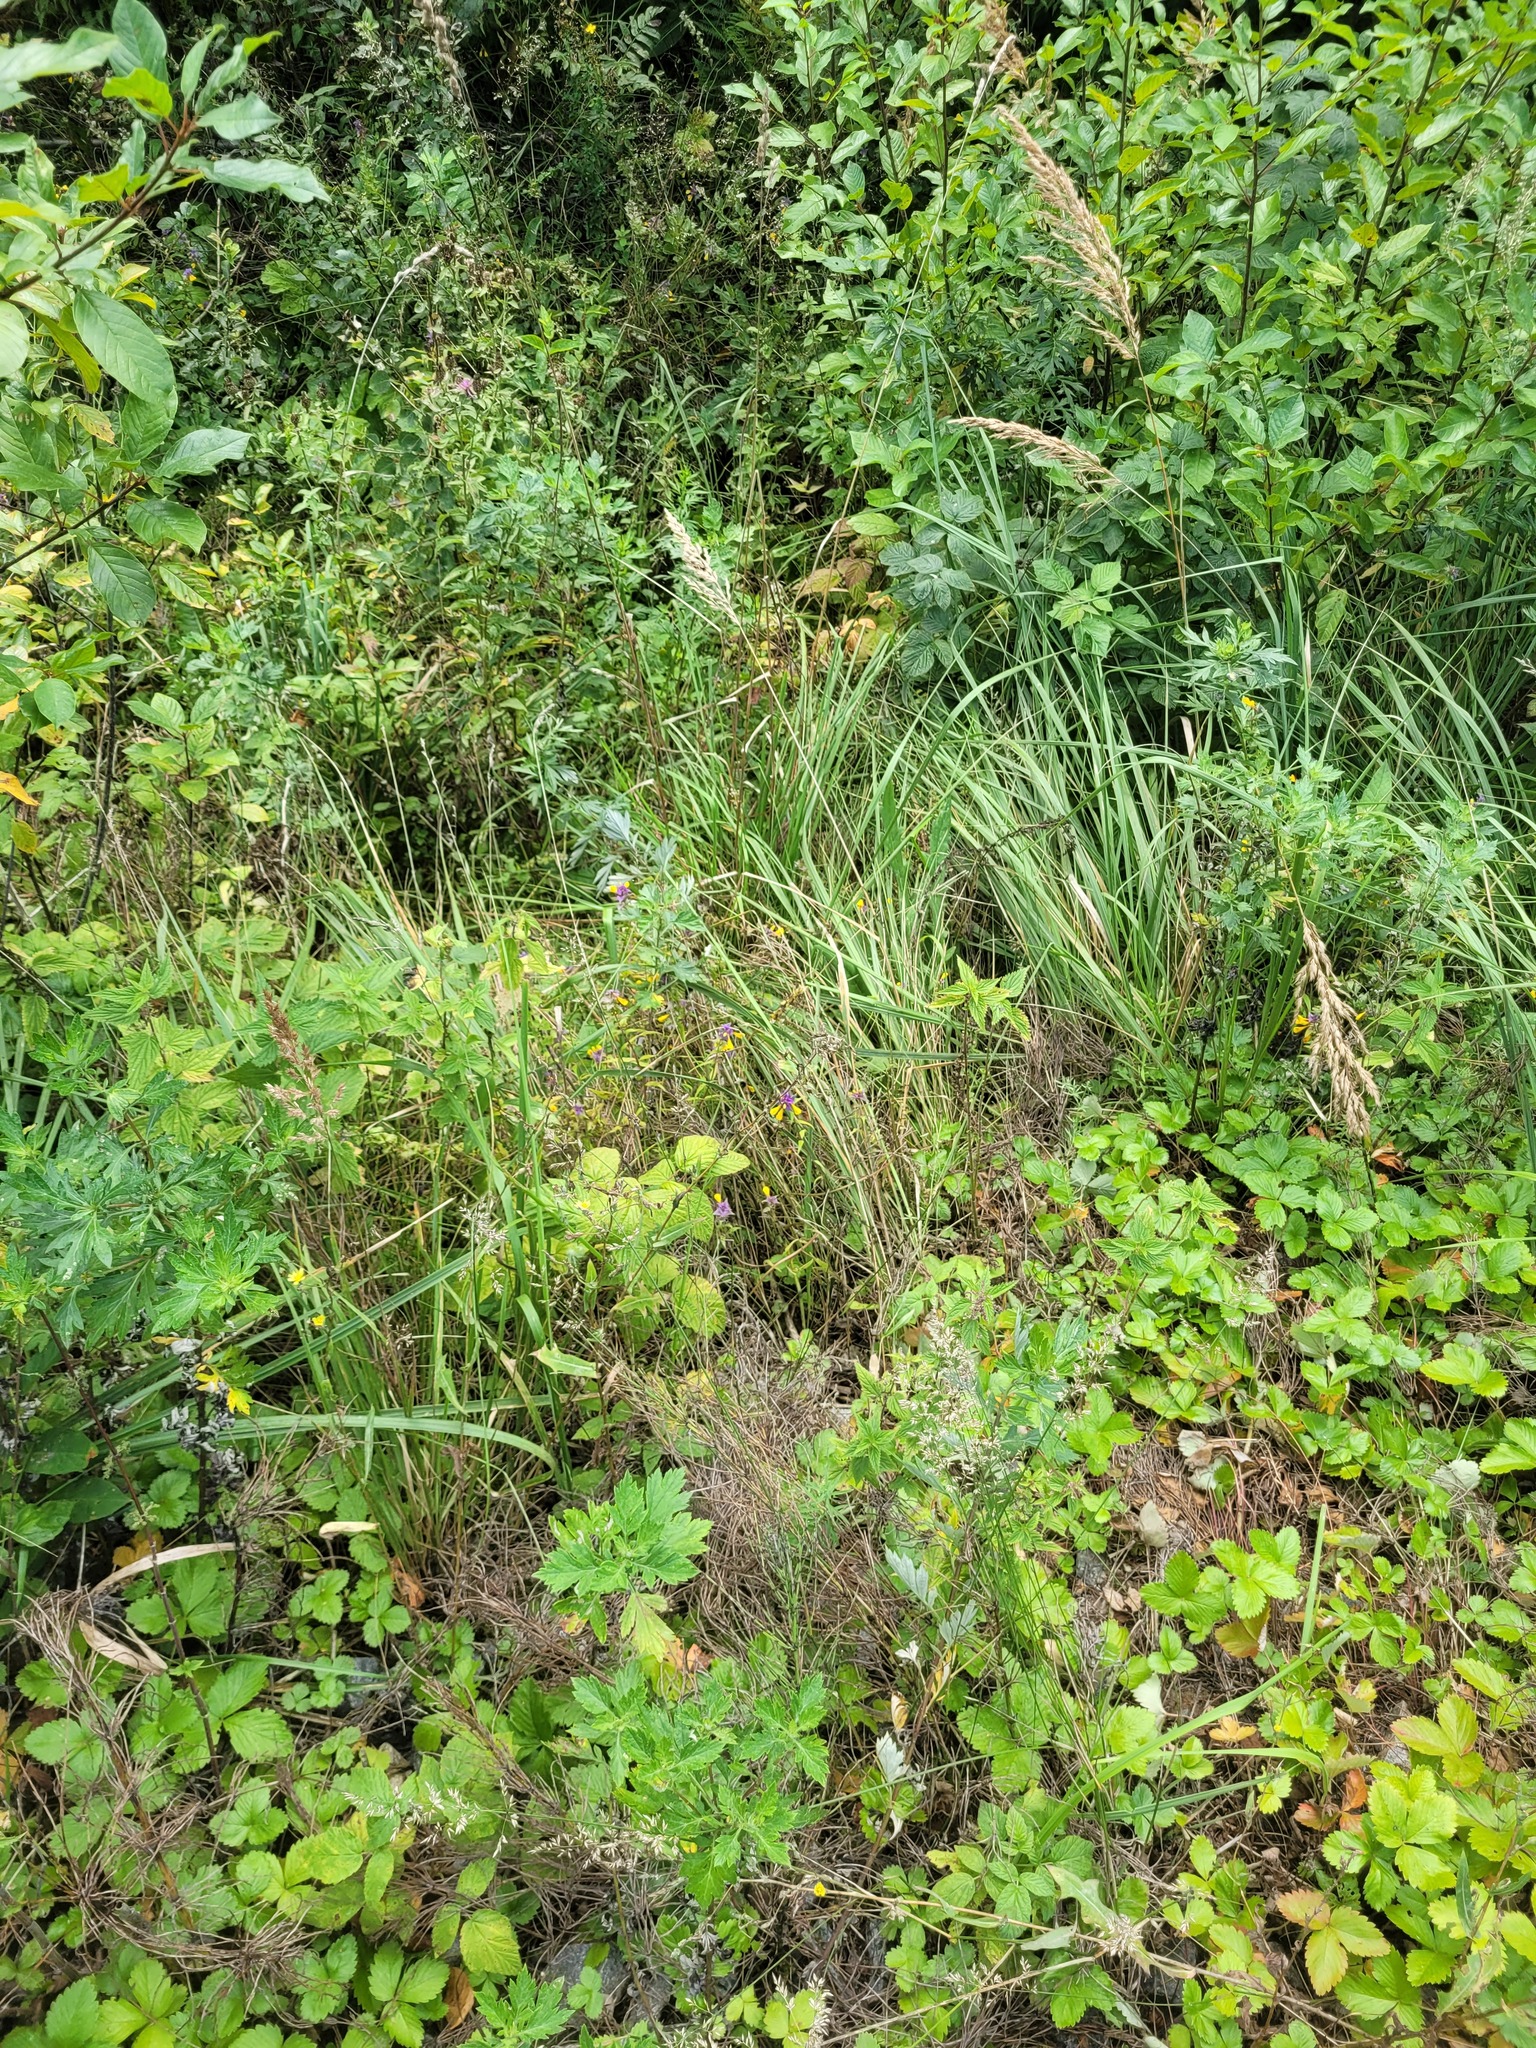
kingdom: Plantae
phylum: Tracheophyta
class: Magnoliopsida
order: Lamiales
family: Orobanchaceae
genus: Melampyrum
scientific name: Melampyrum nemorosum
